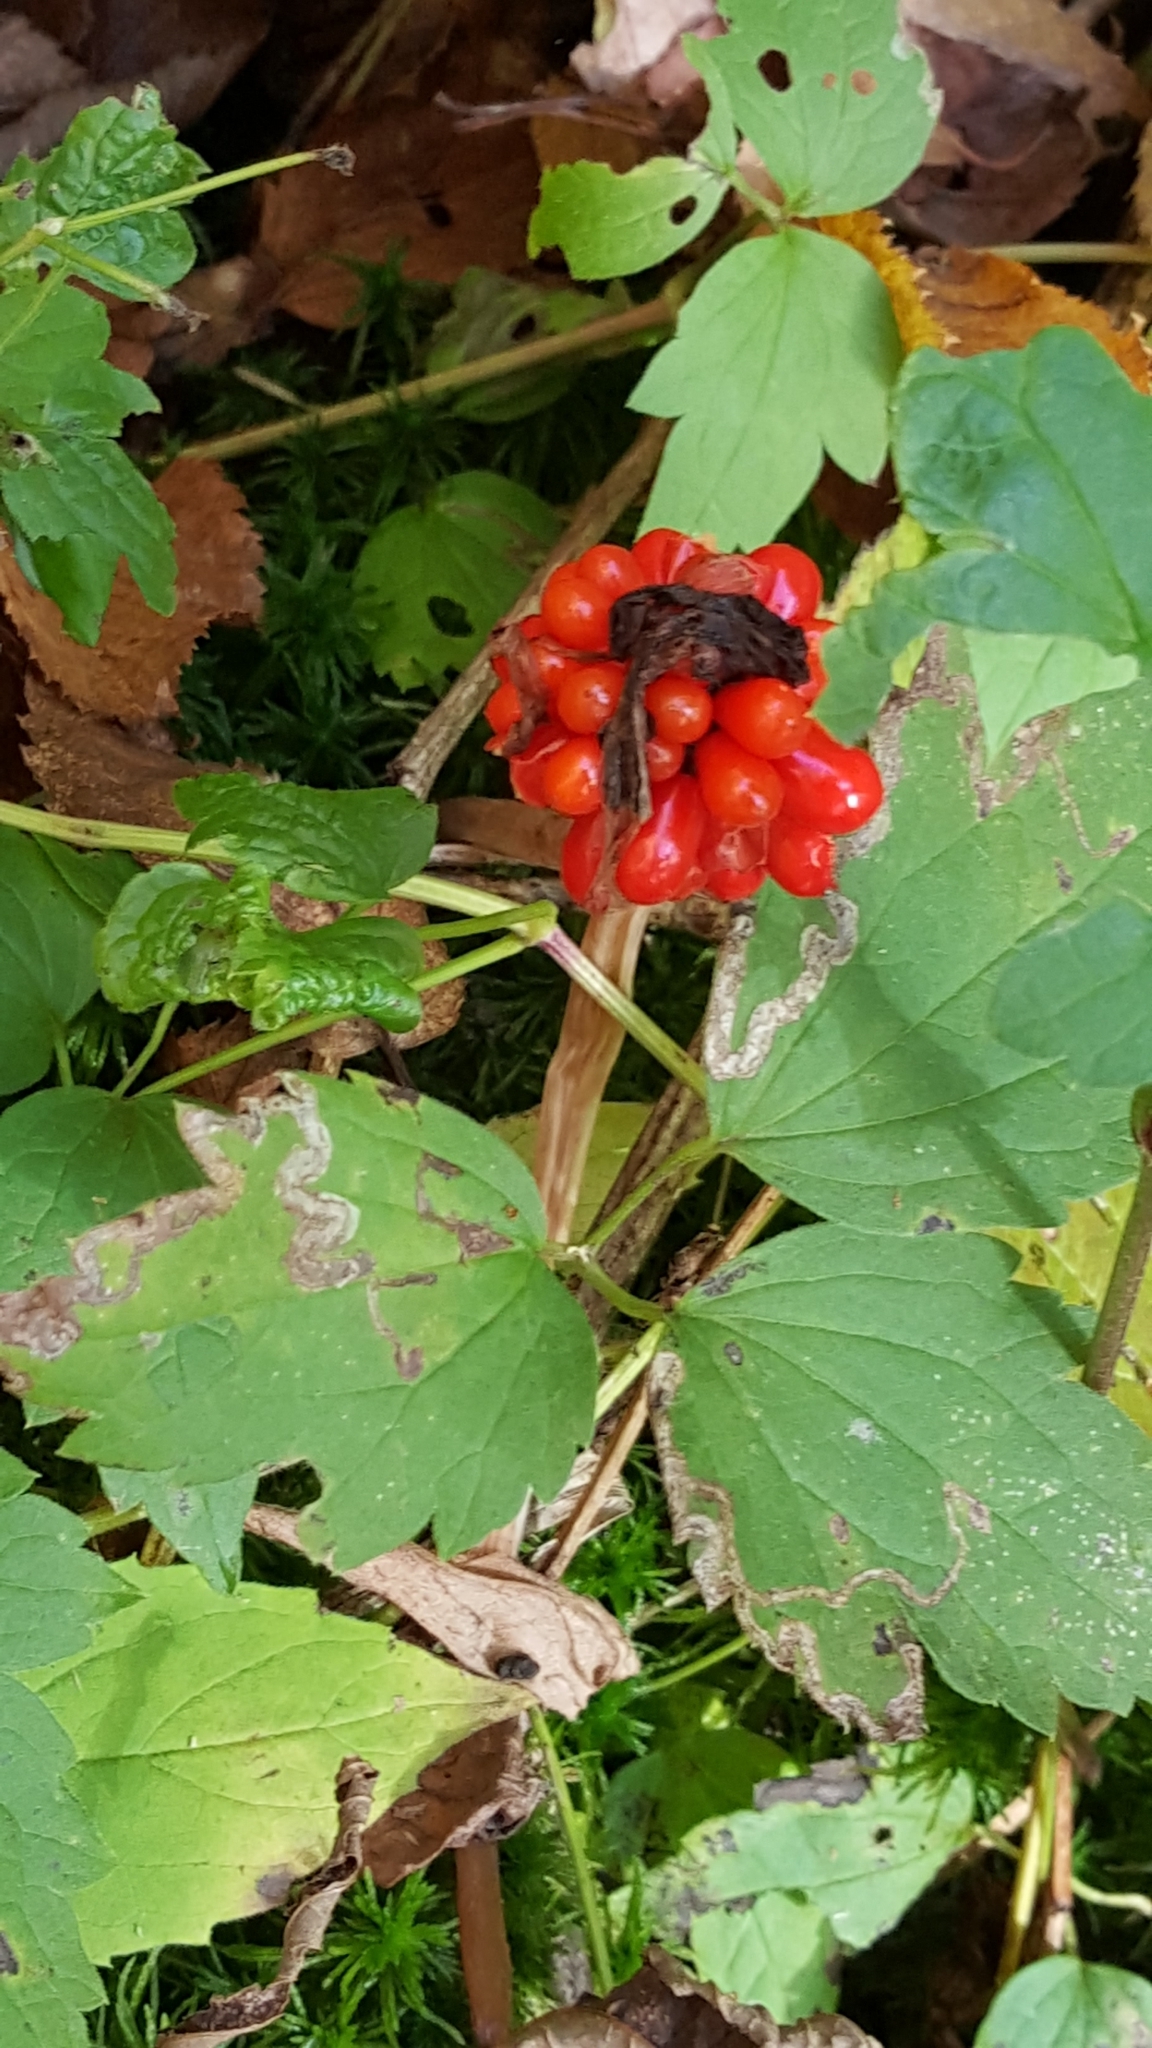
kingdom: Plantae
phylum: Tracheophyta
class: Liliopsida
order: Alismatales
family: Araceae
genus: Arisaema
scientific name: Arisaema triphyllum
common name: Jack-in-the-pulpit
